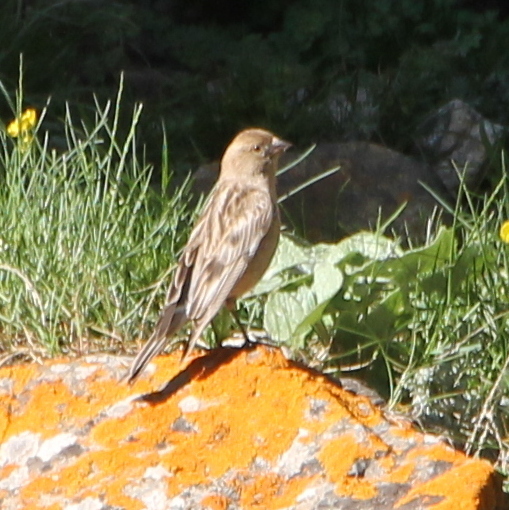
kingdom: Animalia
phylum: Chordata
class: Aves
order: Passeriformes
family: Fringillidae
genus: Leucosticte
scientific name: Leucosticte nemoricola
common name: Plain mountain finch
